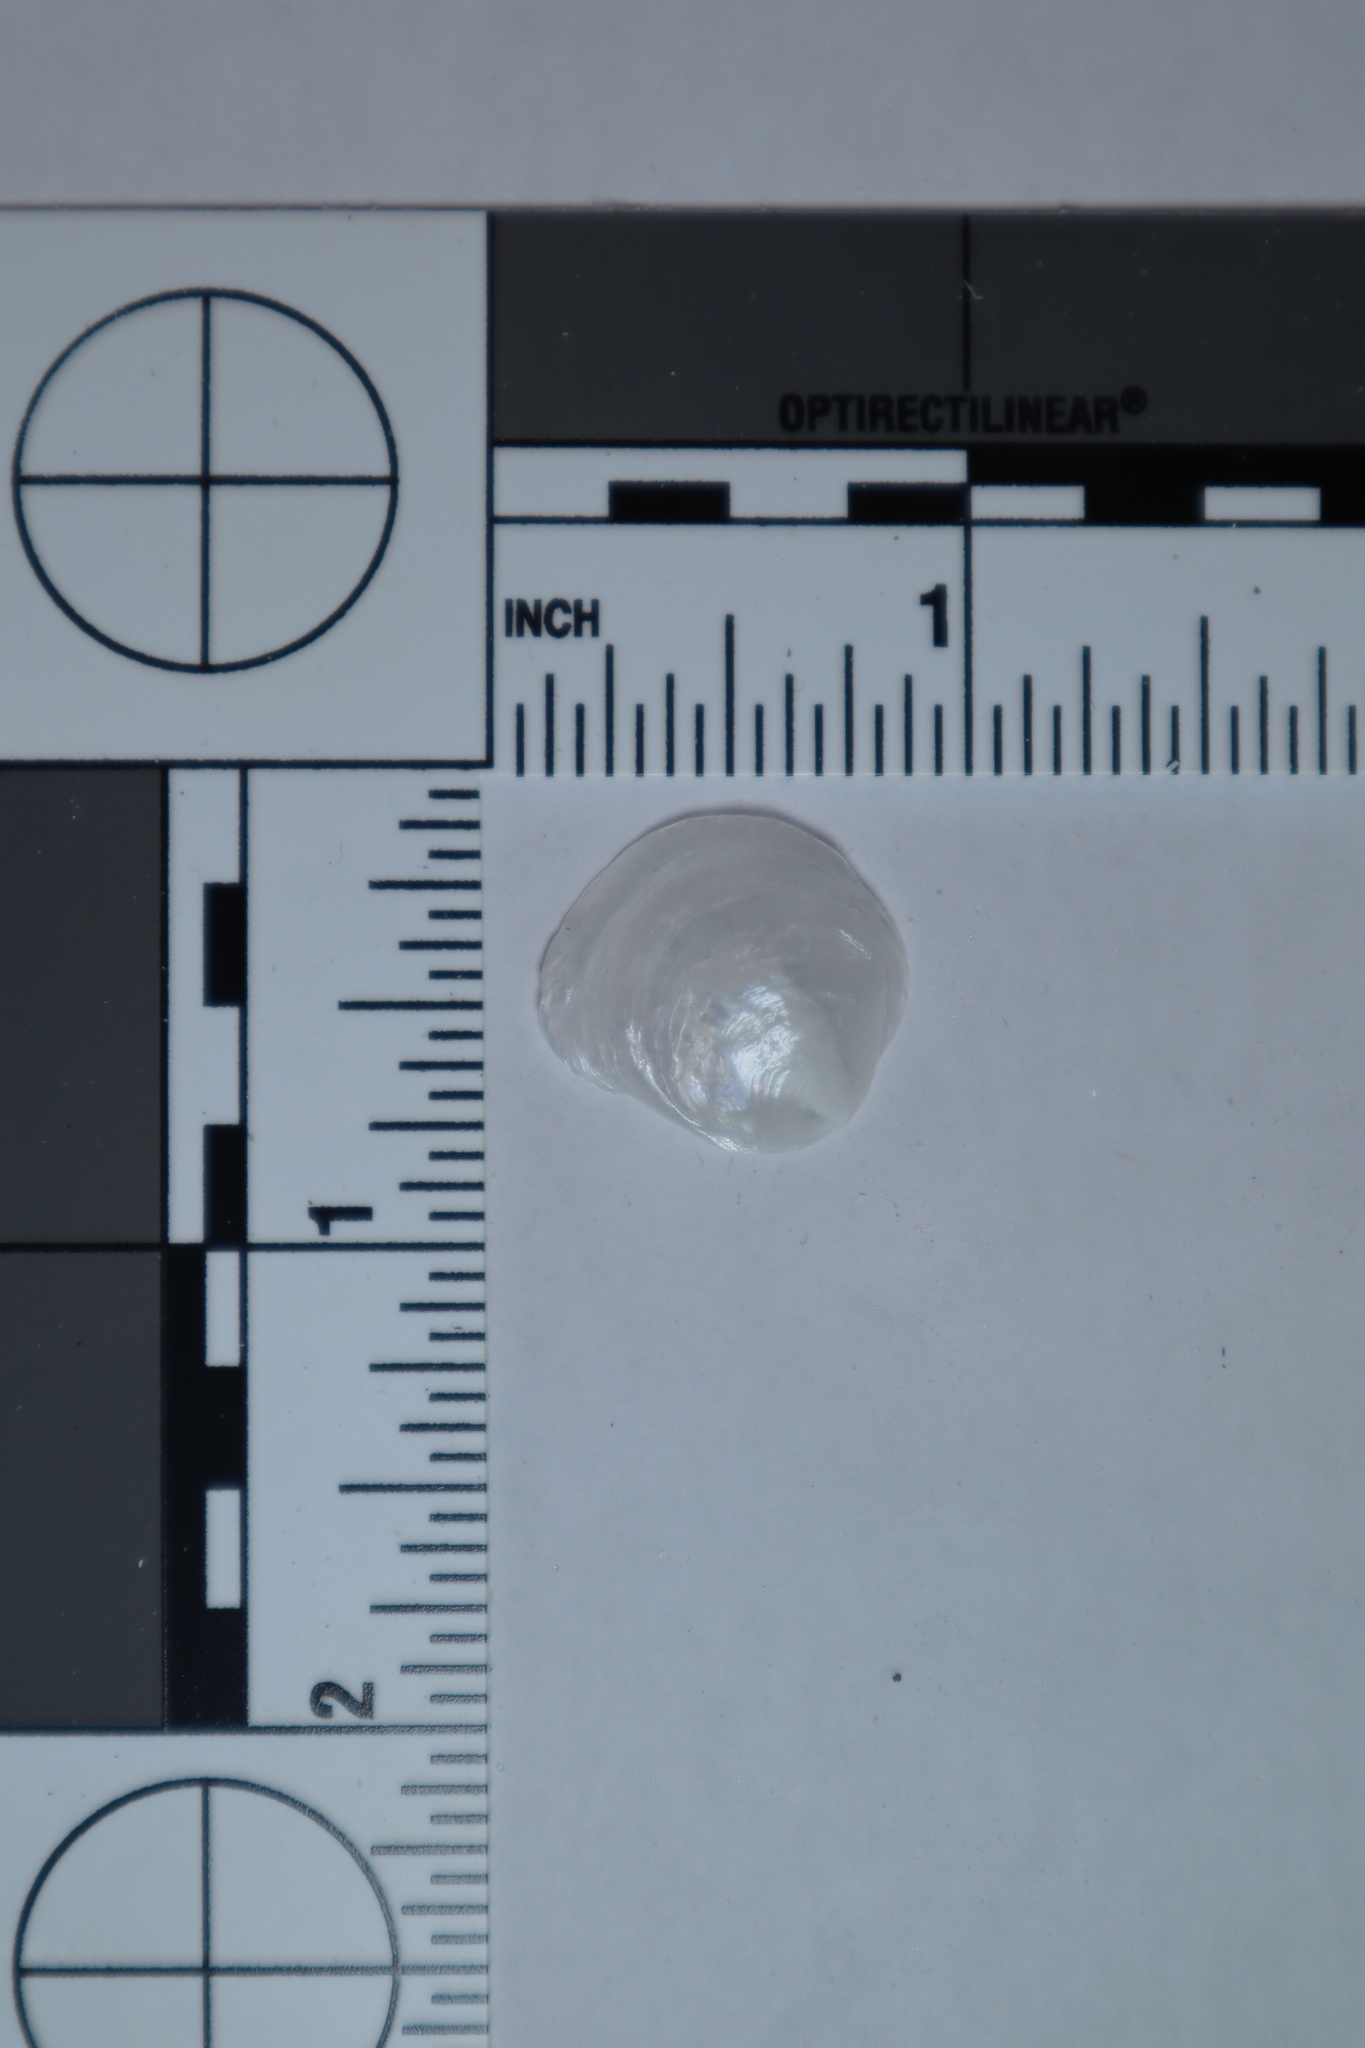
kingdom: Animalia
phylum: Mollusca
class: Bivalvia
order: Pectinida
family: Anomiidae
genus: Anomia
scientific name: Anomia simplex
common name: Common jingle shell
